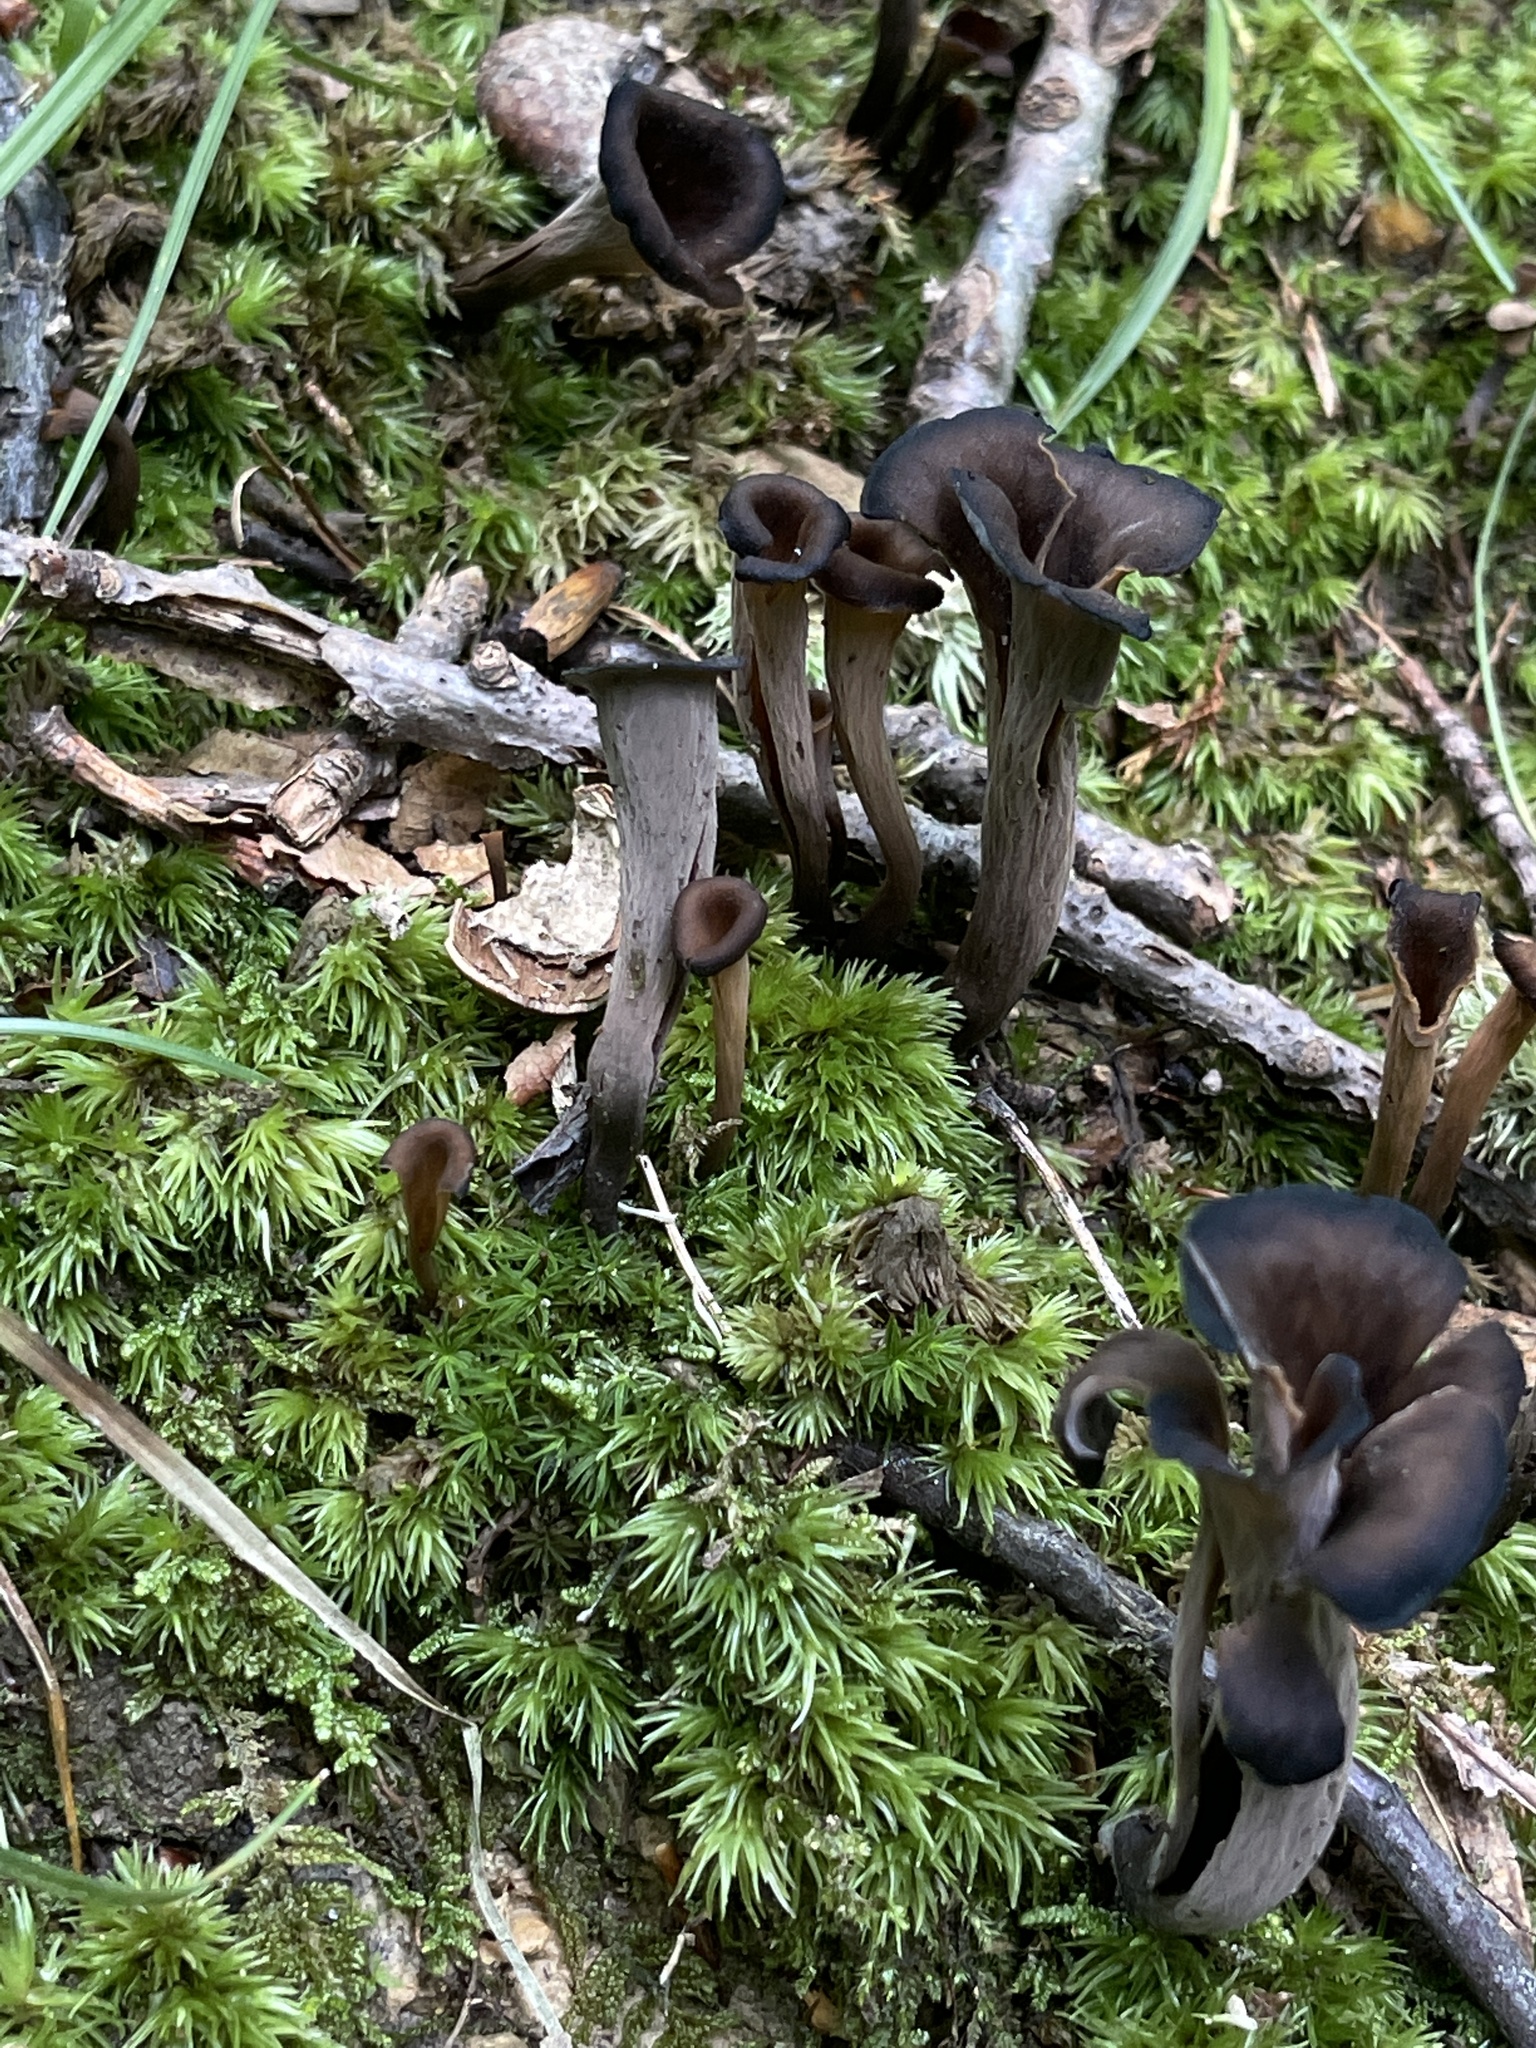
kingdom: Fungi
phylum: Basidiomycota
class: Agaricomycetes
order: Cantharellales
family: Hydnaceae
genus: Craterellus
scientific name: Craterellus cornucopioides
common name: Horn of plenty
